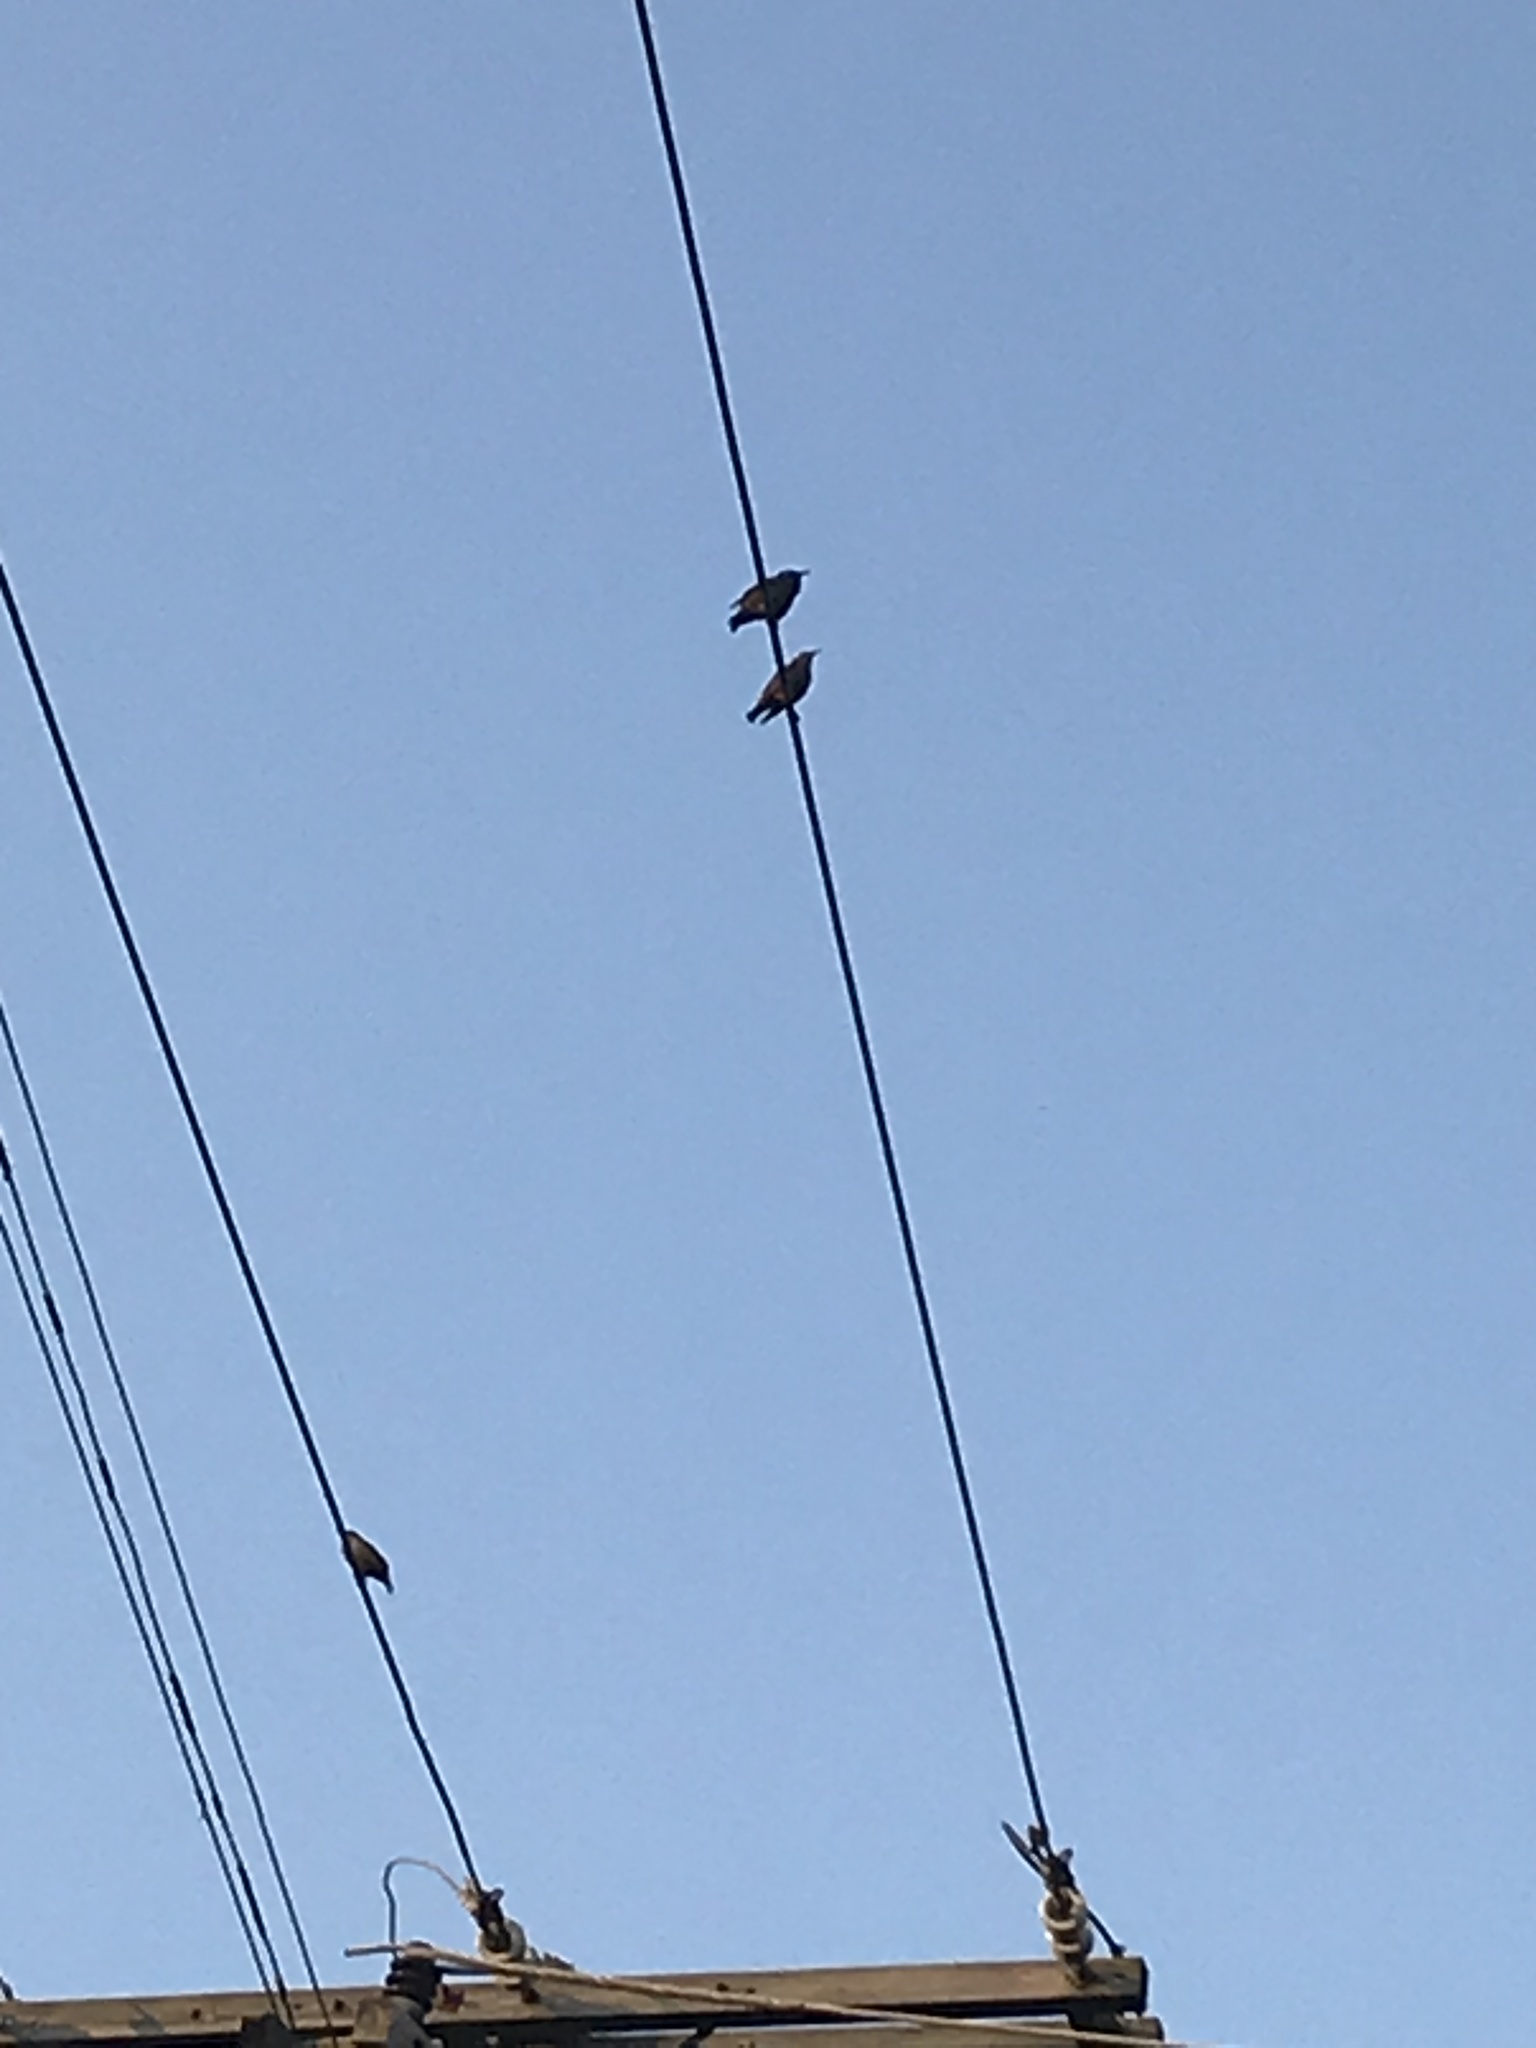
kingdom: Animalia
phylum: Chordata
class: Aves
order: Passeriformes
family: Sturnidae
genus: Sturnus
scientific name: Sturnus vulgaris
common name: Common starling
